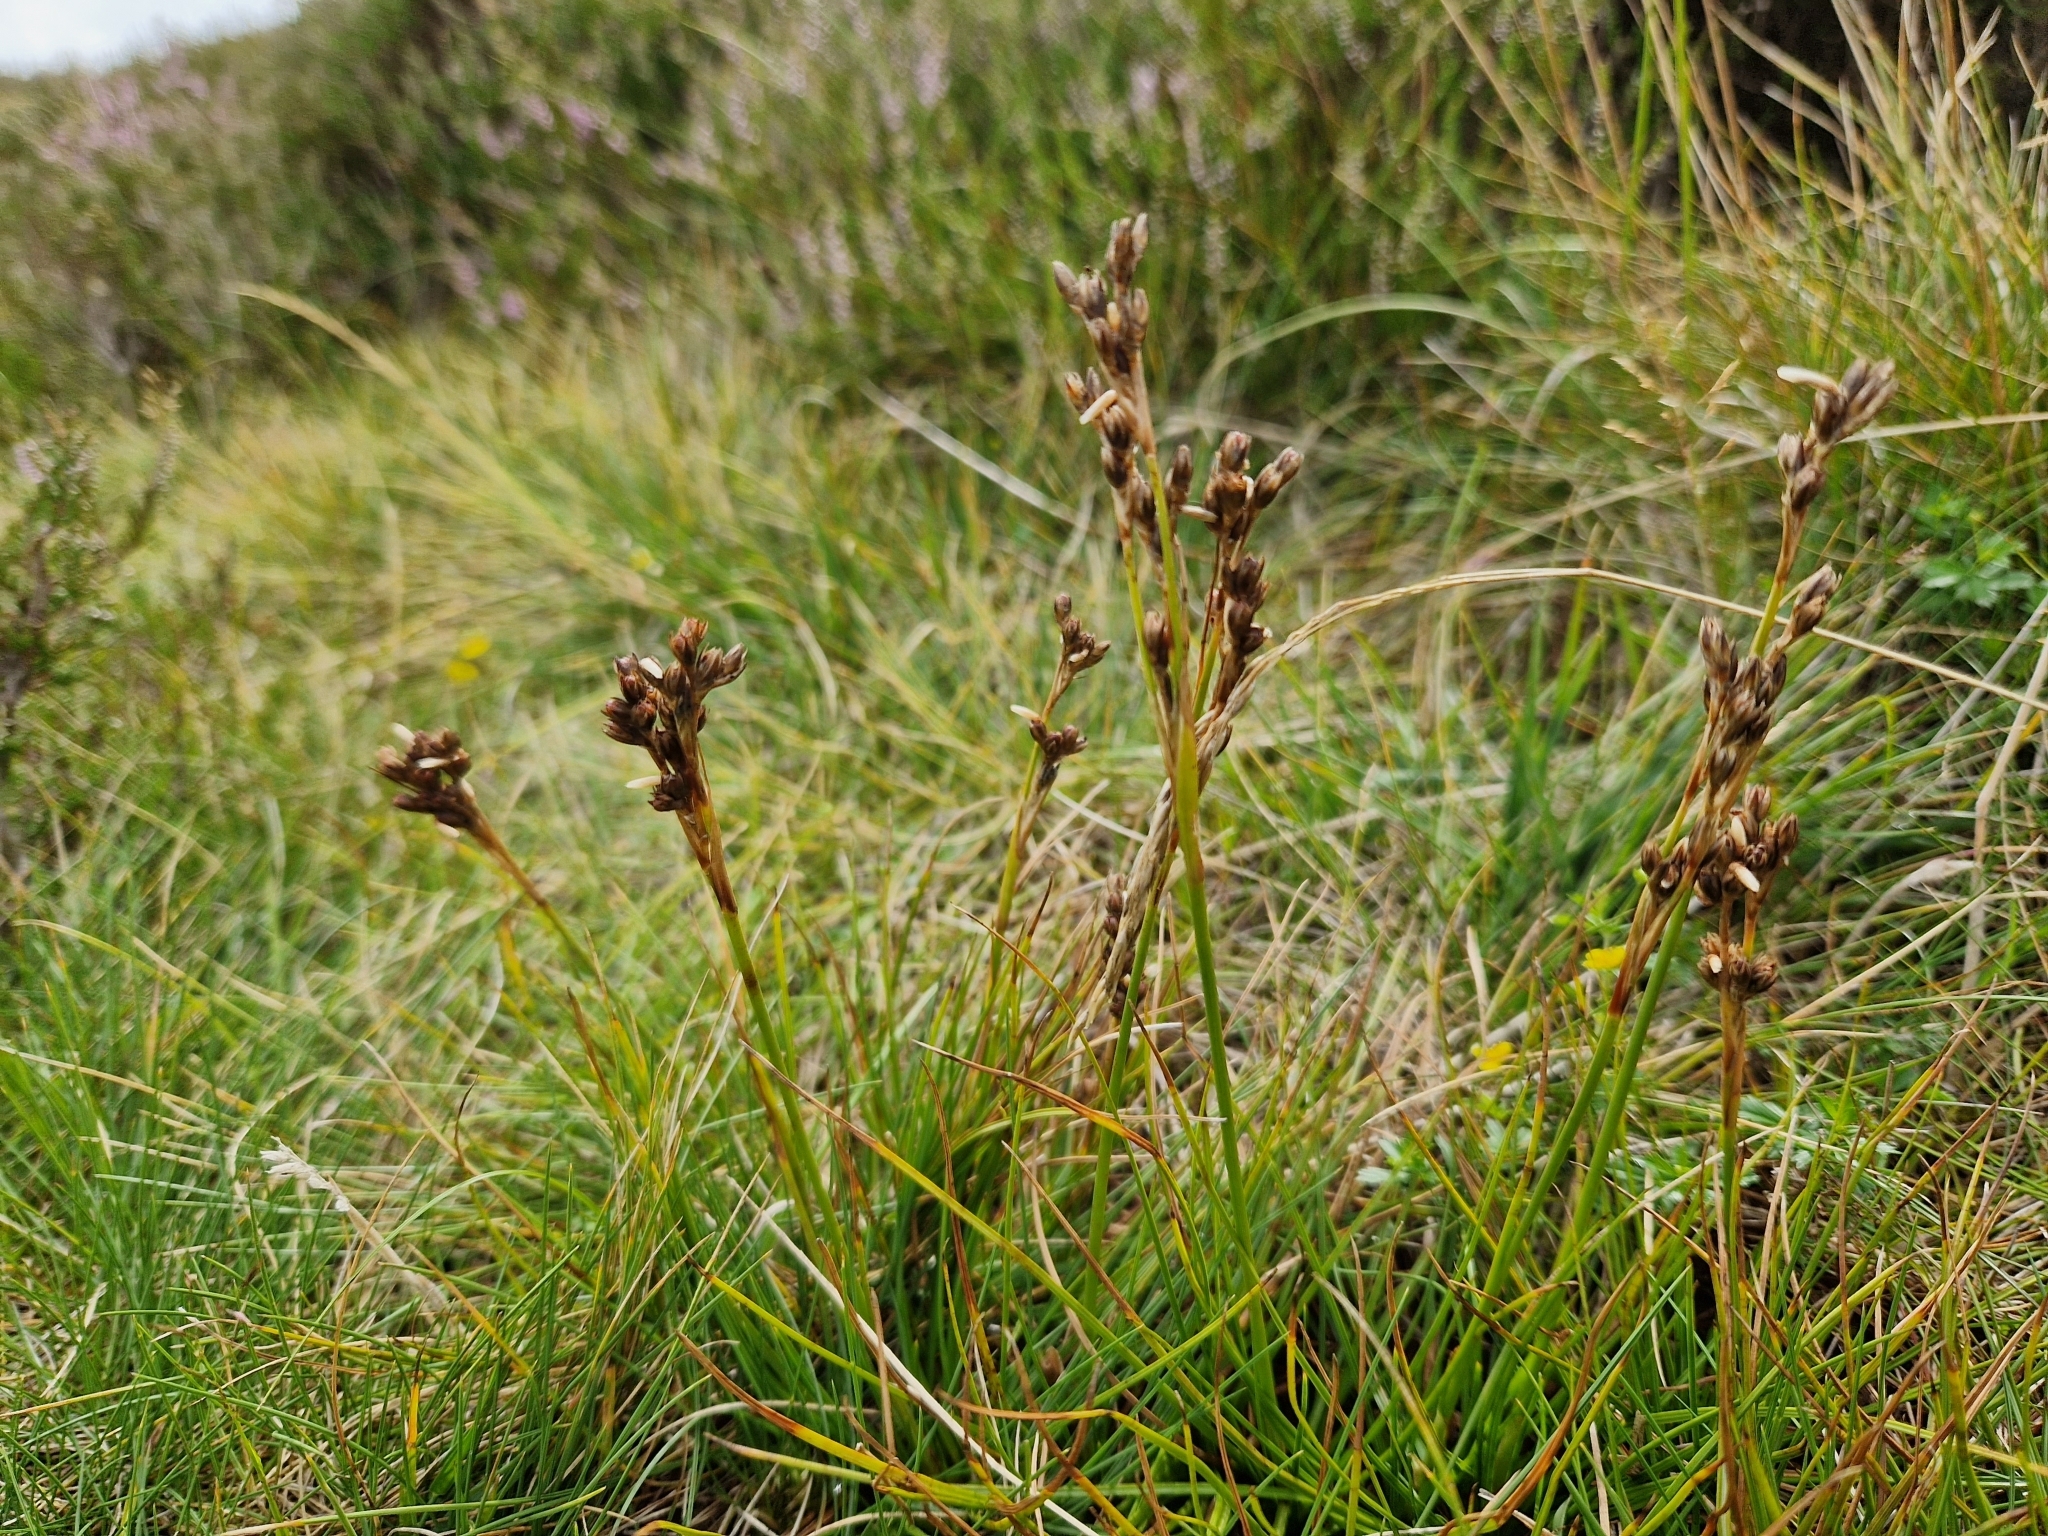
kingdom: Plantae
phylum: Tracheophyta
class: Liliopsida
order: Poales
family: Juncaceae
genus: Juncus
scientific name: Juncus squarrosus
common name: Heath rush
